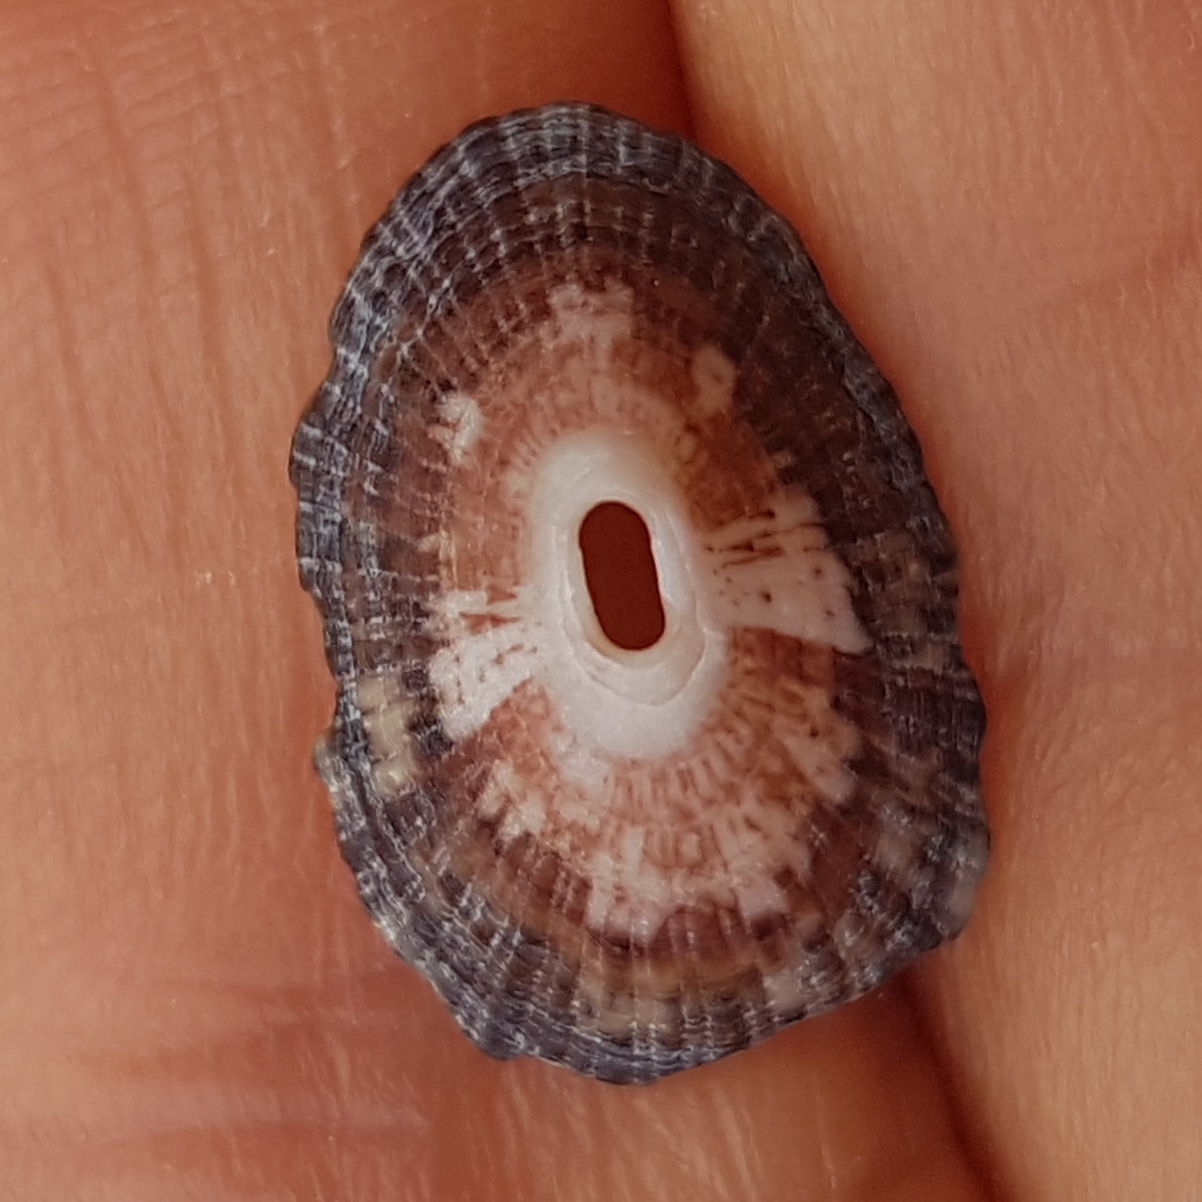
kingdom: Animalia
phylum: Mollusca
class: Gastropoda
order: Lepetellida
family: Fissurellidae
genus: Fissurella
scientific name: Fissurella nubecula
